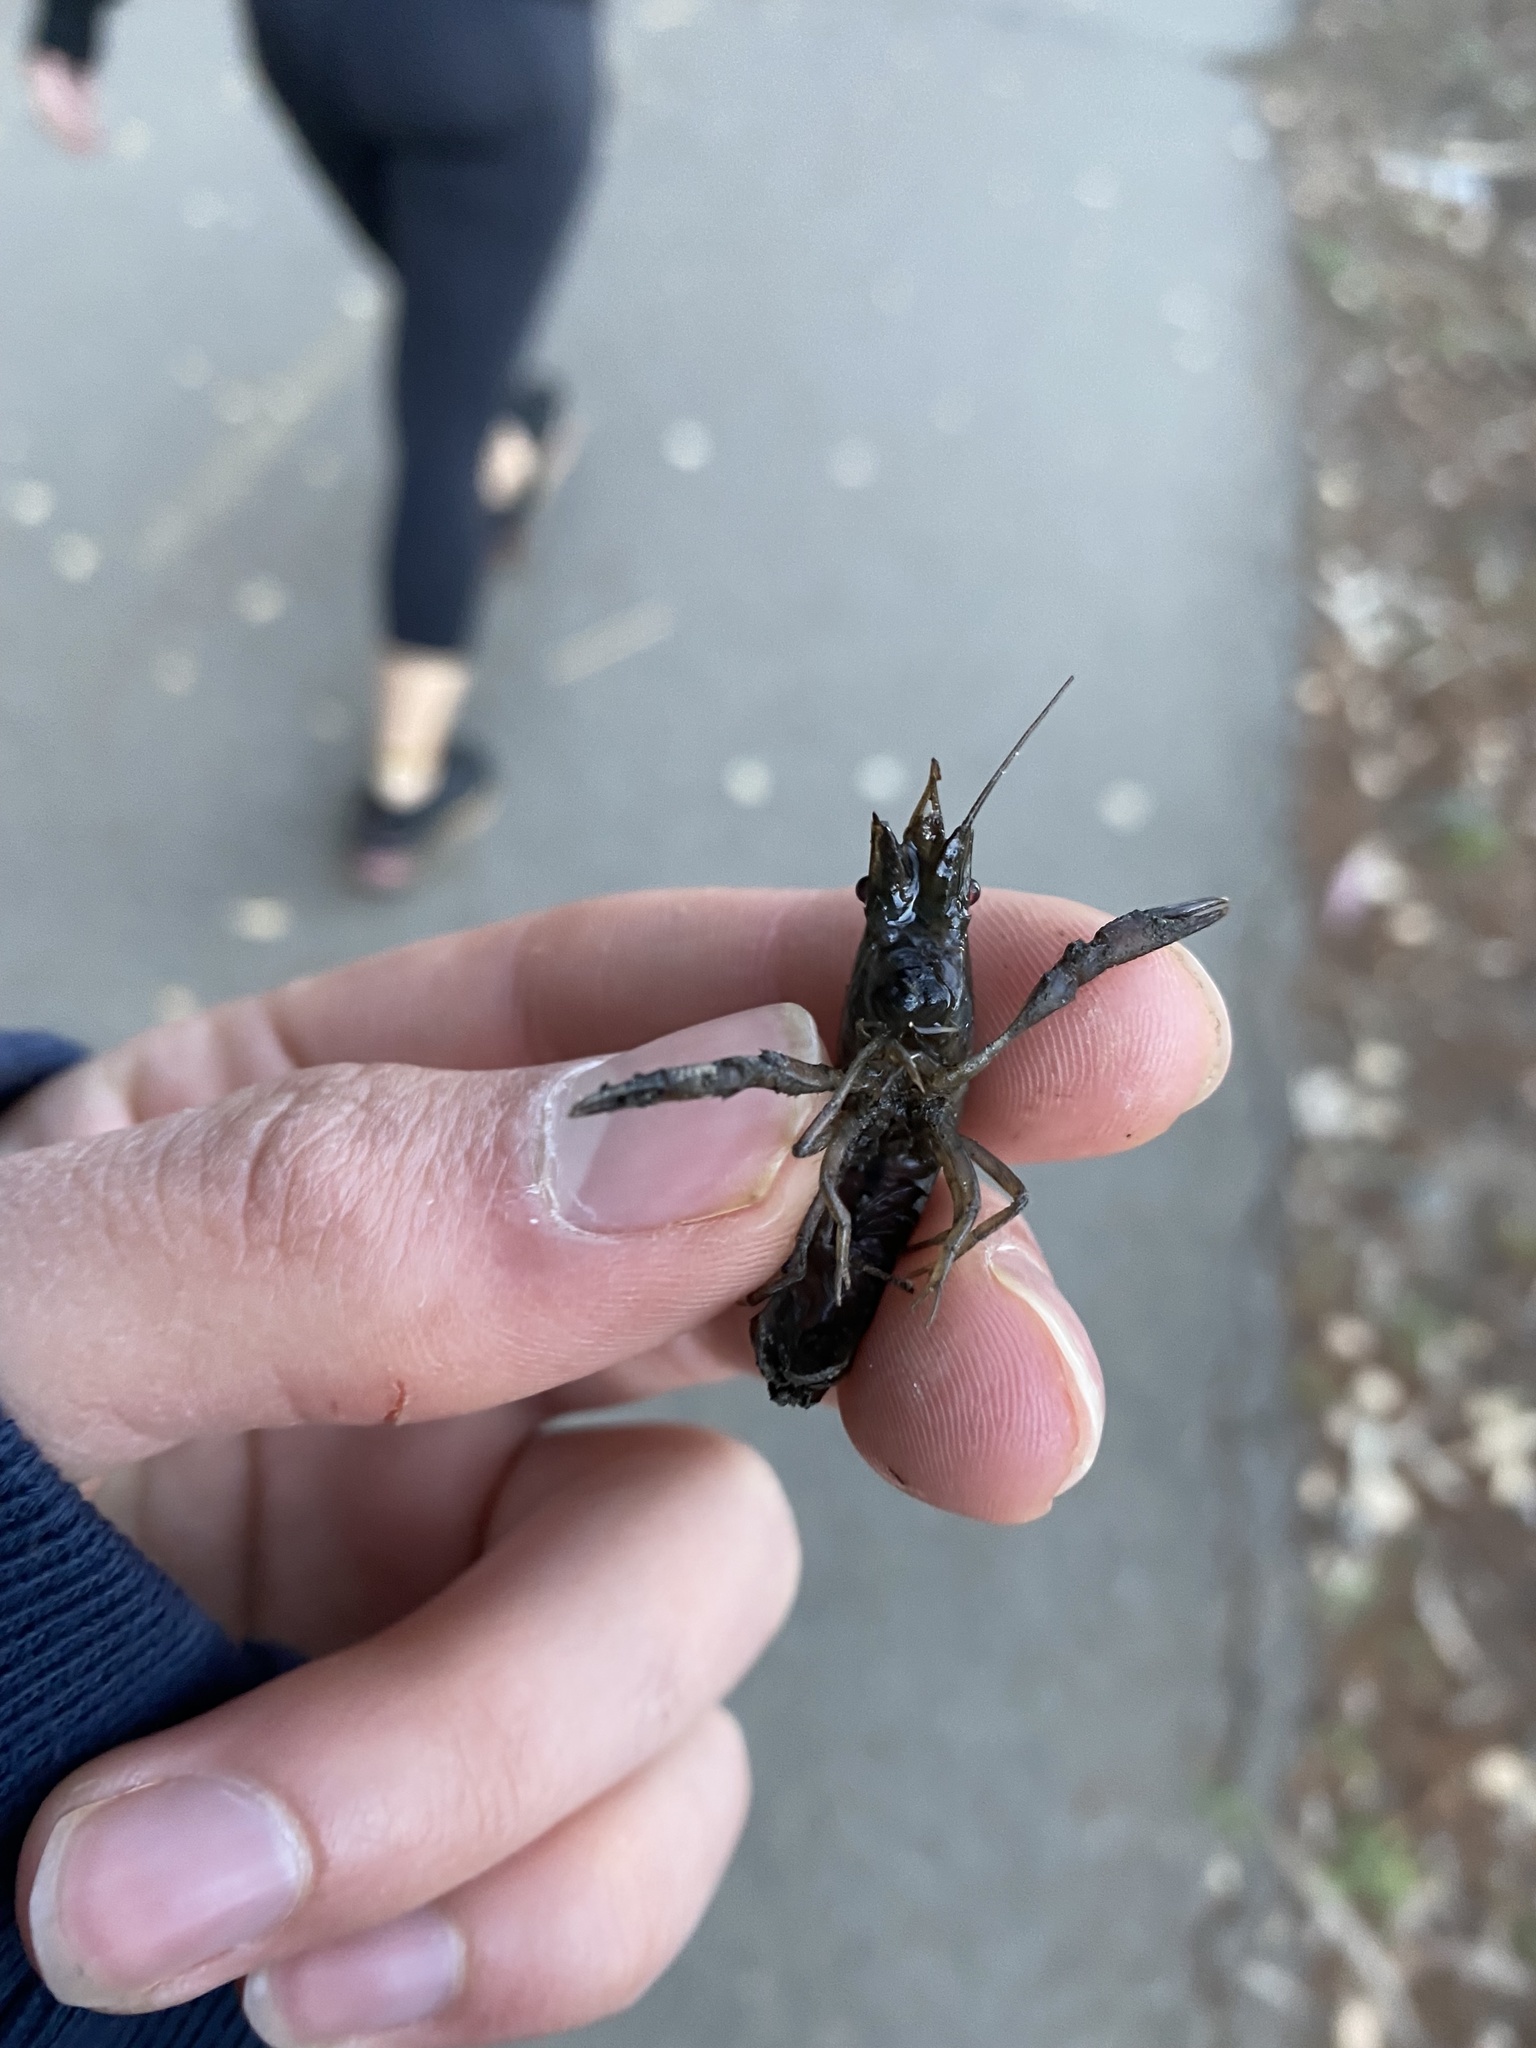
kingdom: Animalia
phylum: Arthropoda
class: Malacostraca
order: Decapoda
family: Cambaridae
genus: Procambarus
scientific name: Procambarus clarkii
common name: Red swamp crayfish
